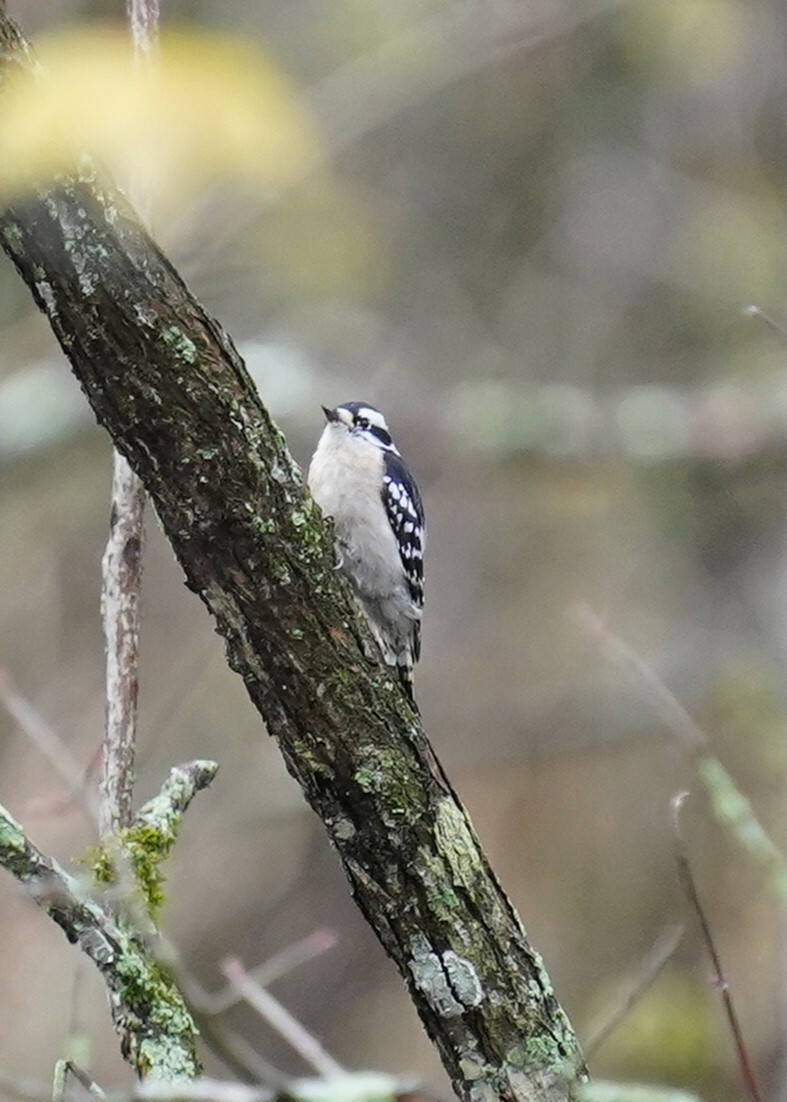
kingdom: Animalia
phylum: Chordata
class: Aves
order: Piciformes
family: Picidae
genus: Dryobates
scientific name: Dryobates pubescens
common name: Downy woodpecker
